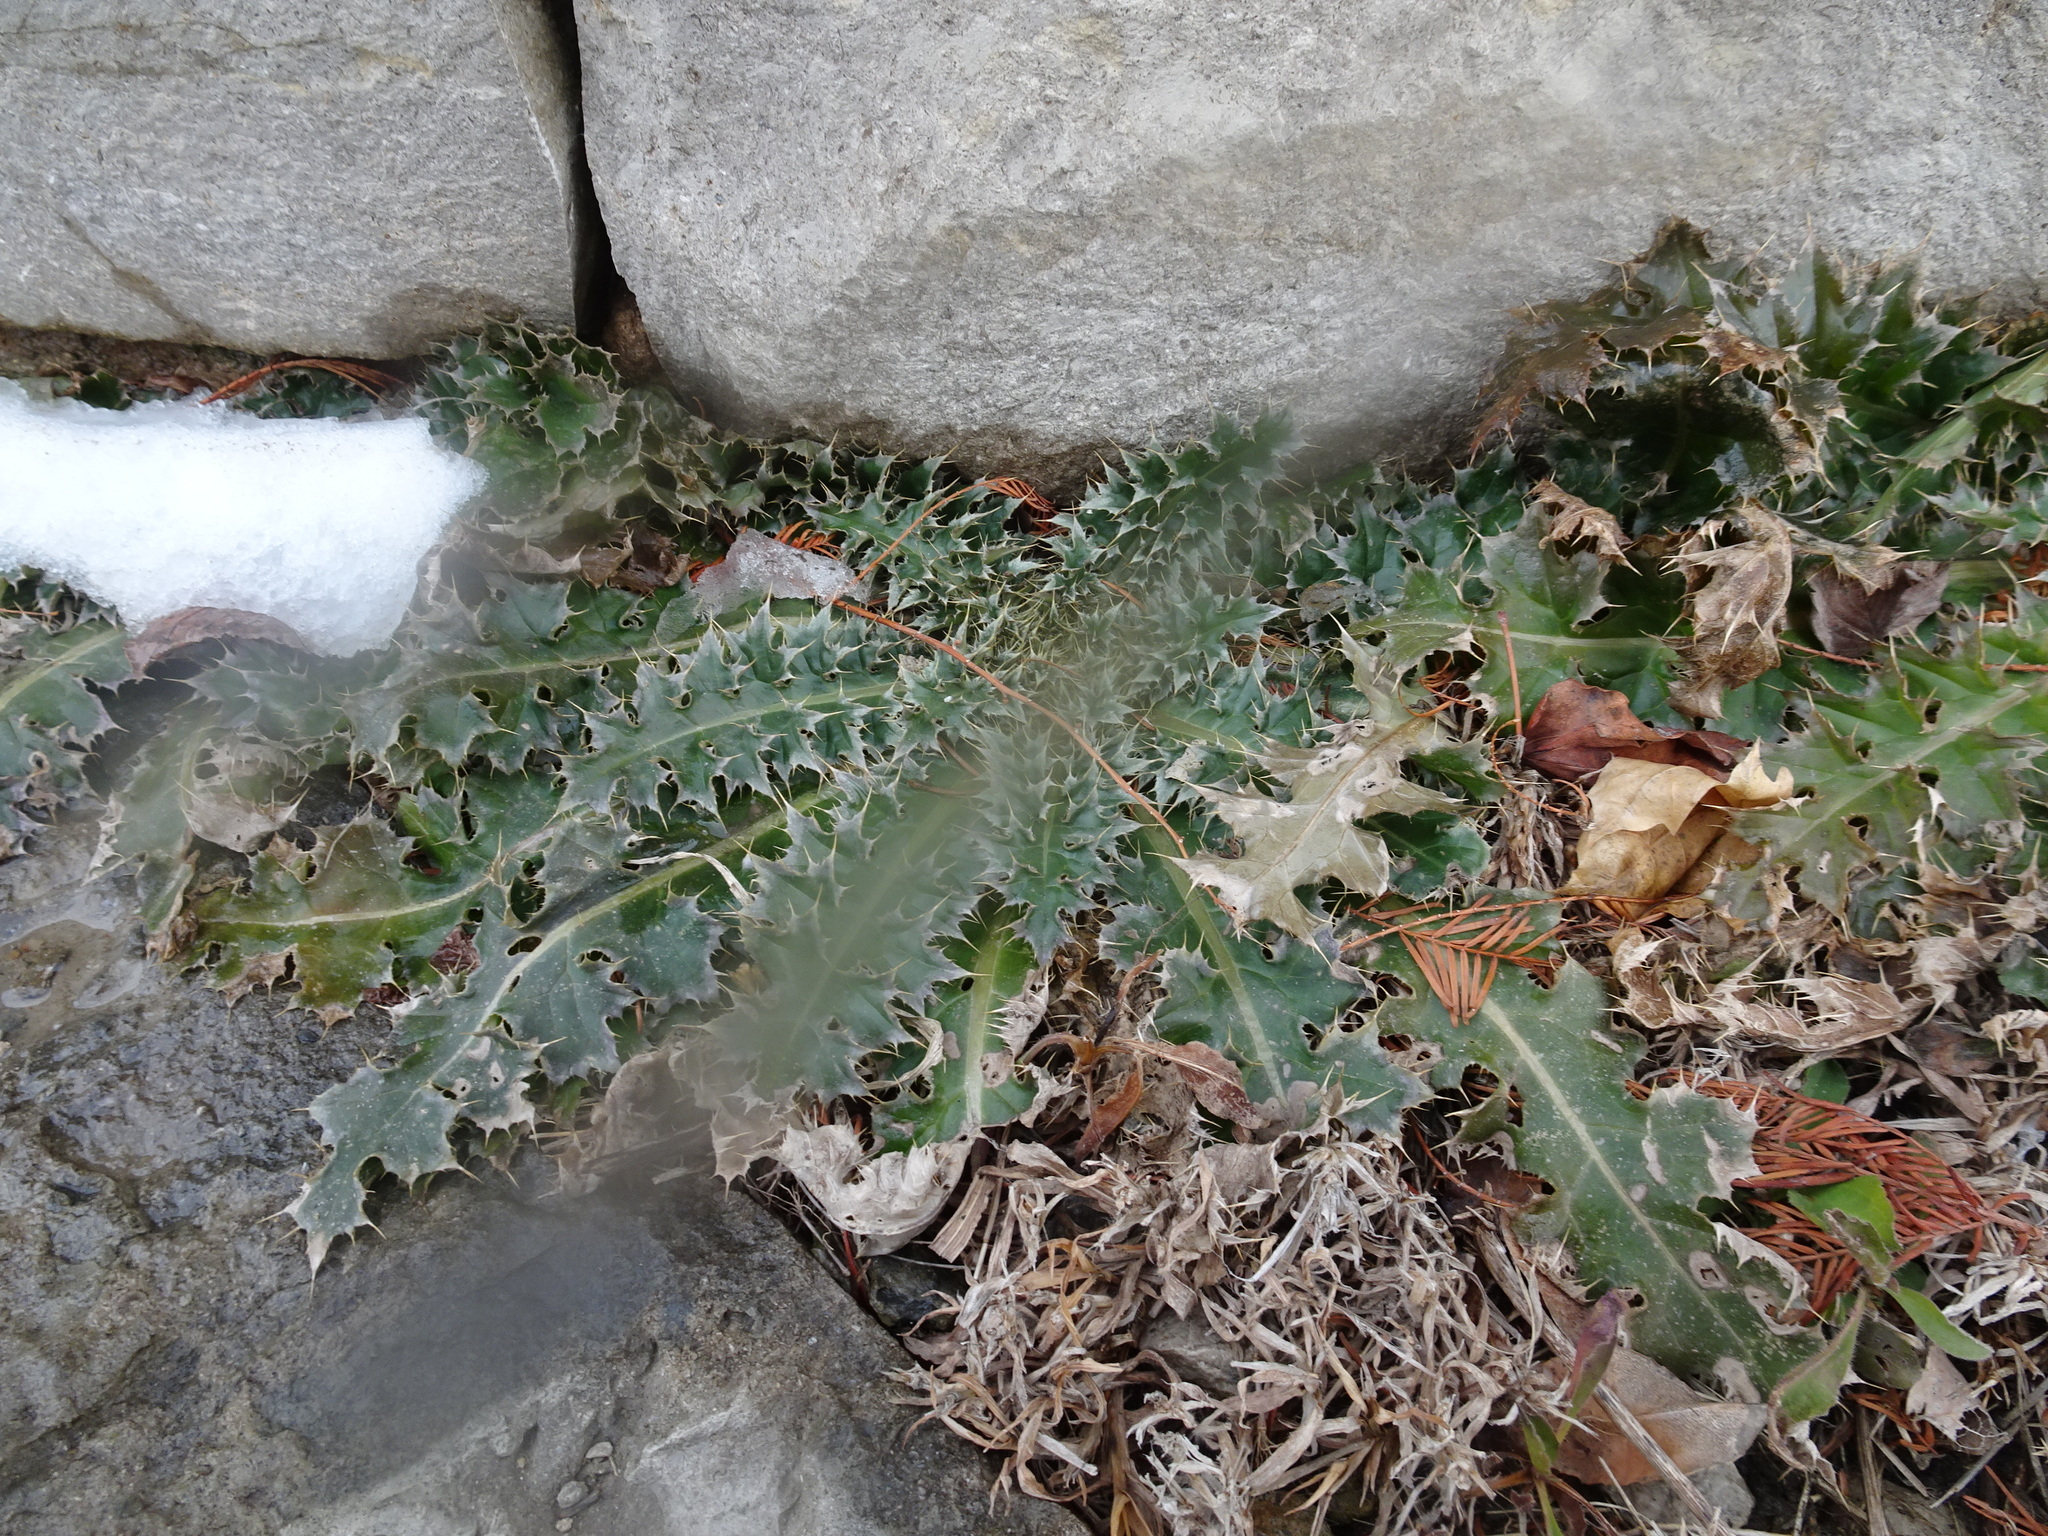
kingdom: Plantae
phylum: Tracheophyta
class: Magnoliopsida
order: Asterales
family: Asteraceae
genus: Carduus
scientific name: Carduus nutans
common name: Musk thistle
